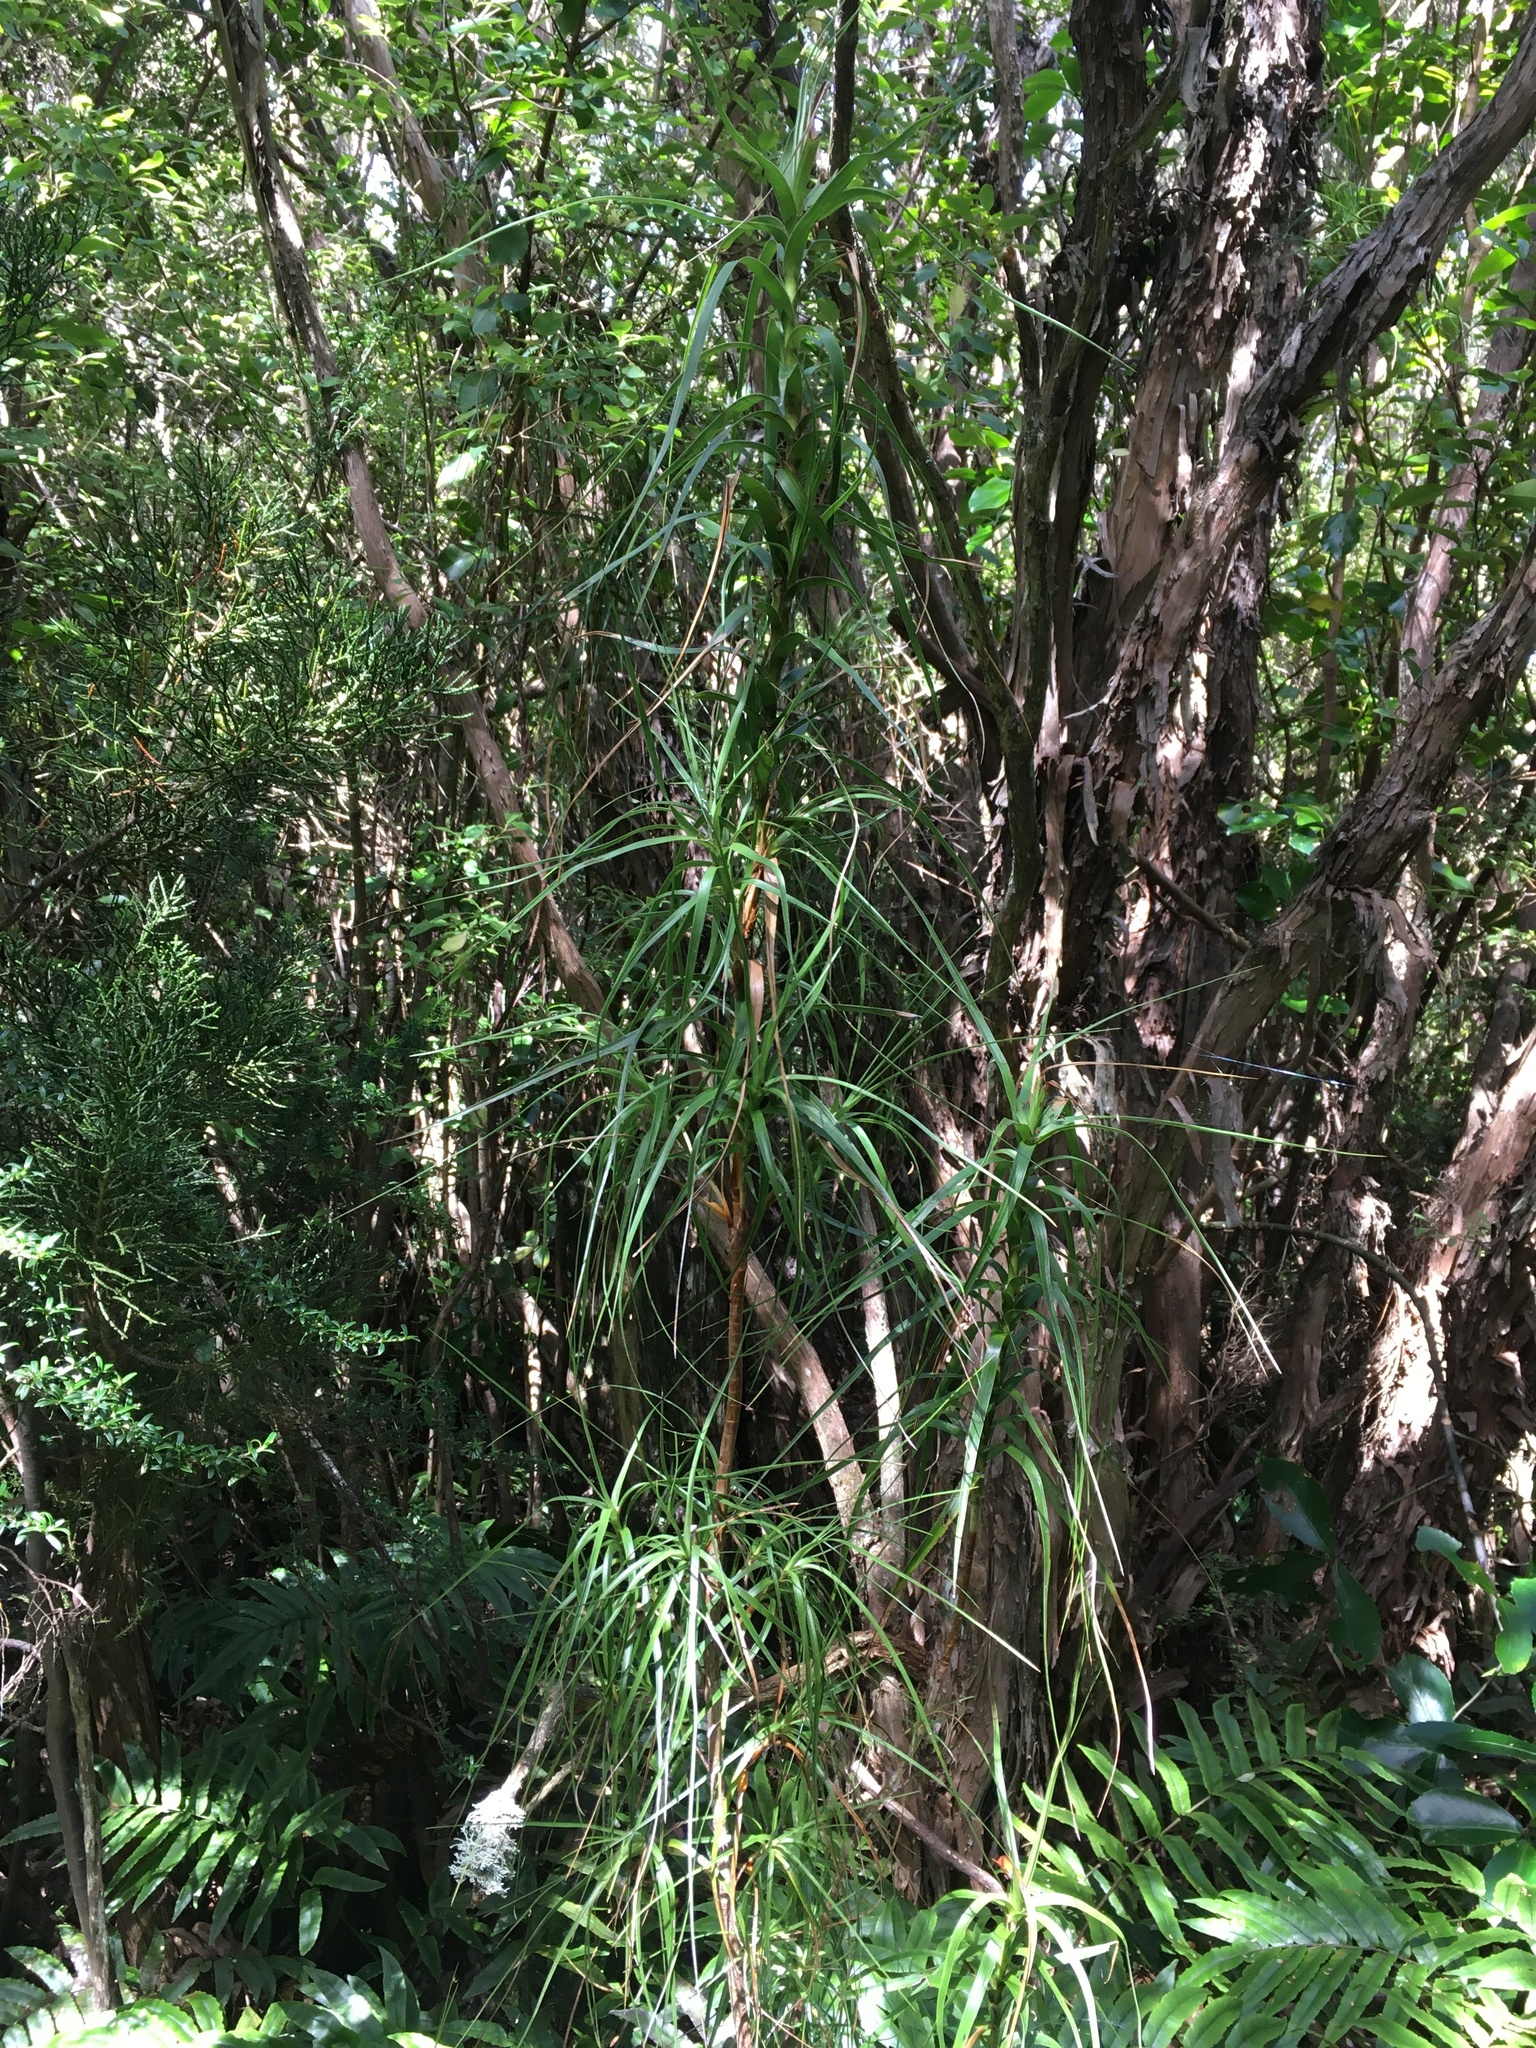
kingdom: Plantae
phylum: Tracheophyta
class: Magnoliopsida
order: Ericales
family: Ericaceae
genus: Dracophyllum
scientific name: Dracophyllum longifolium
